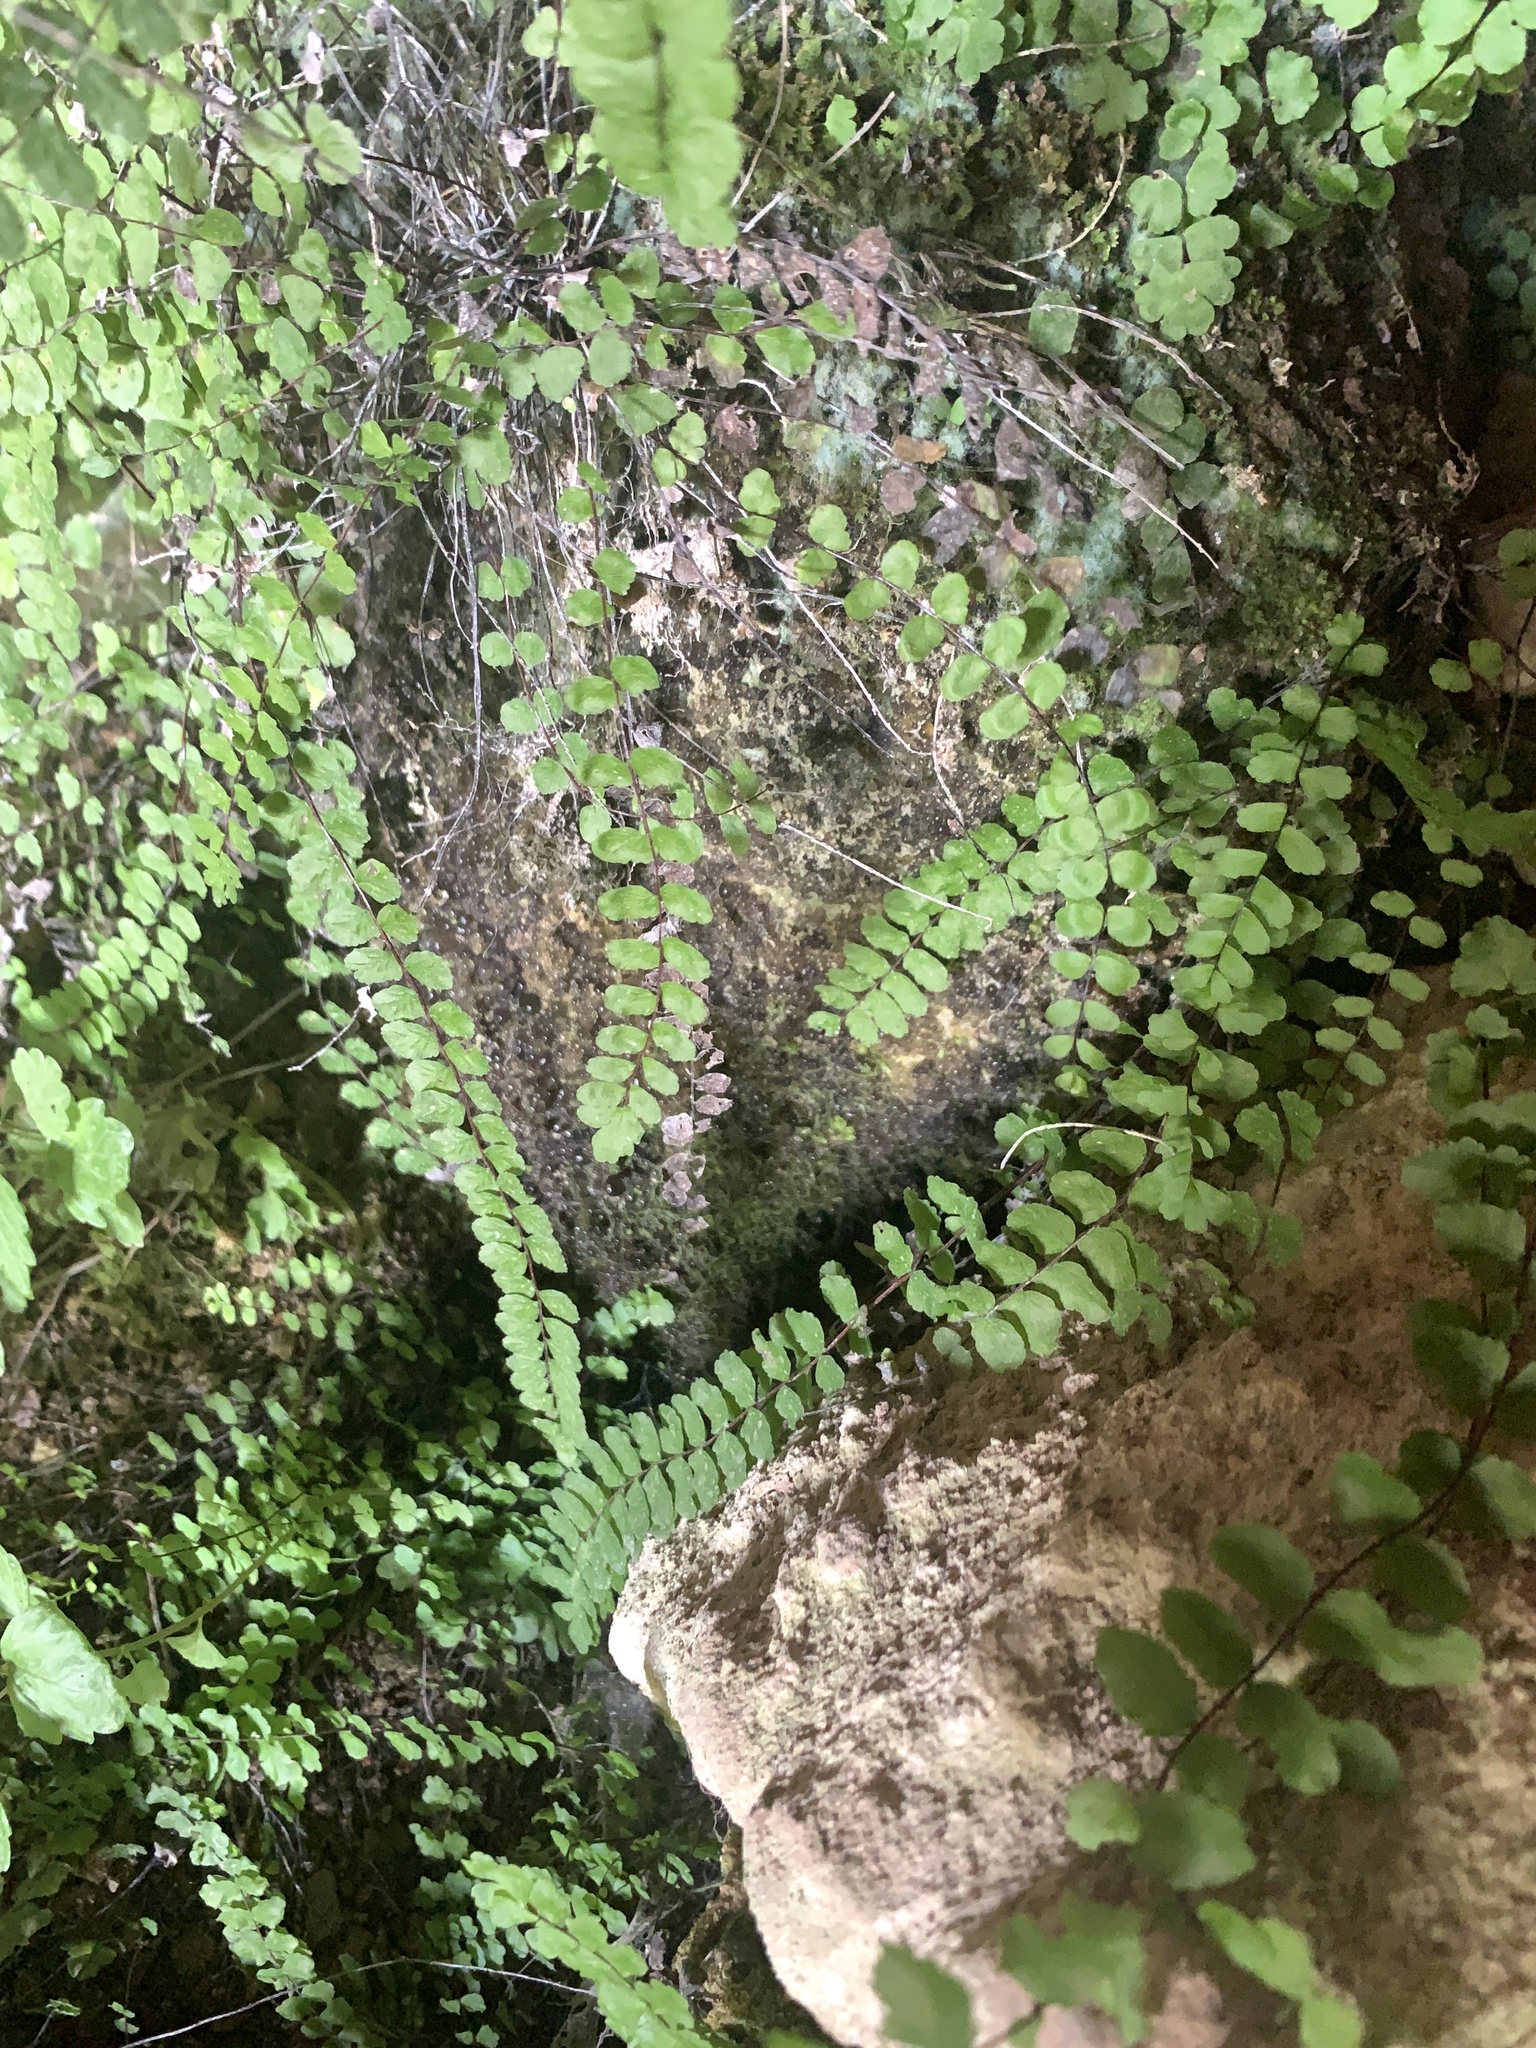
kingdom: Plantae
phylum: Tracheophyta
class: Polypodiopsida
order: Polypodiales
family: Aspleniaceae
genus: Asplenium
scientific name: Asplenium trichomanes
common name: Maidenhair spleenwort
